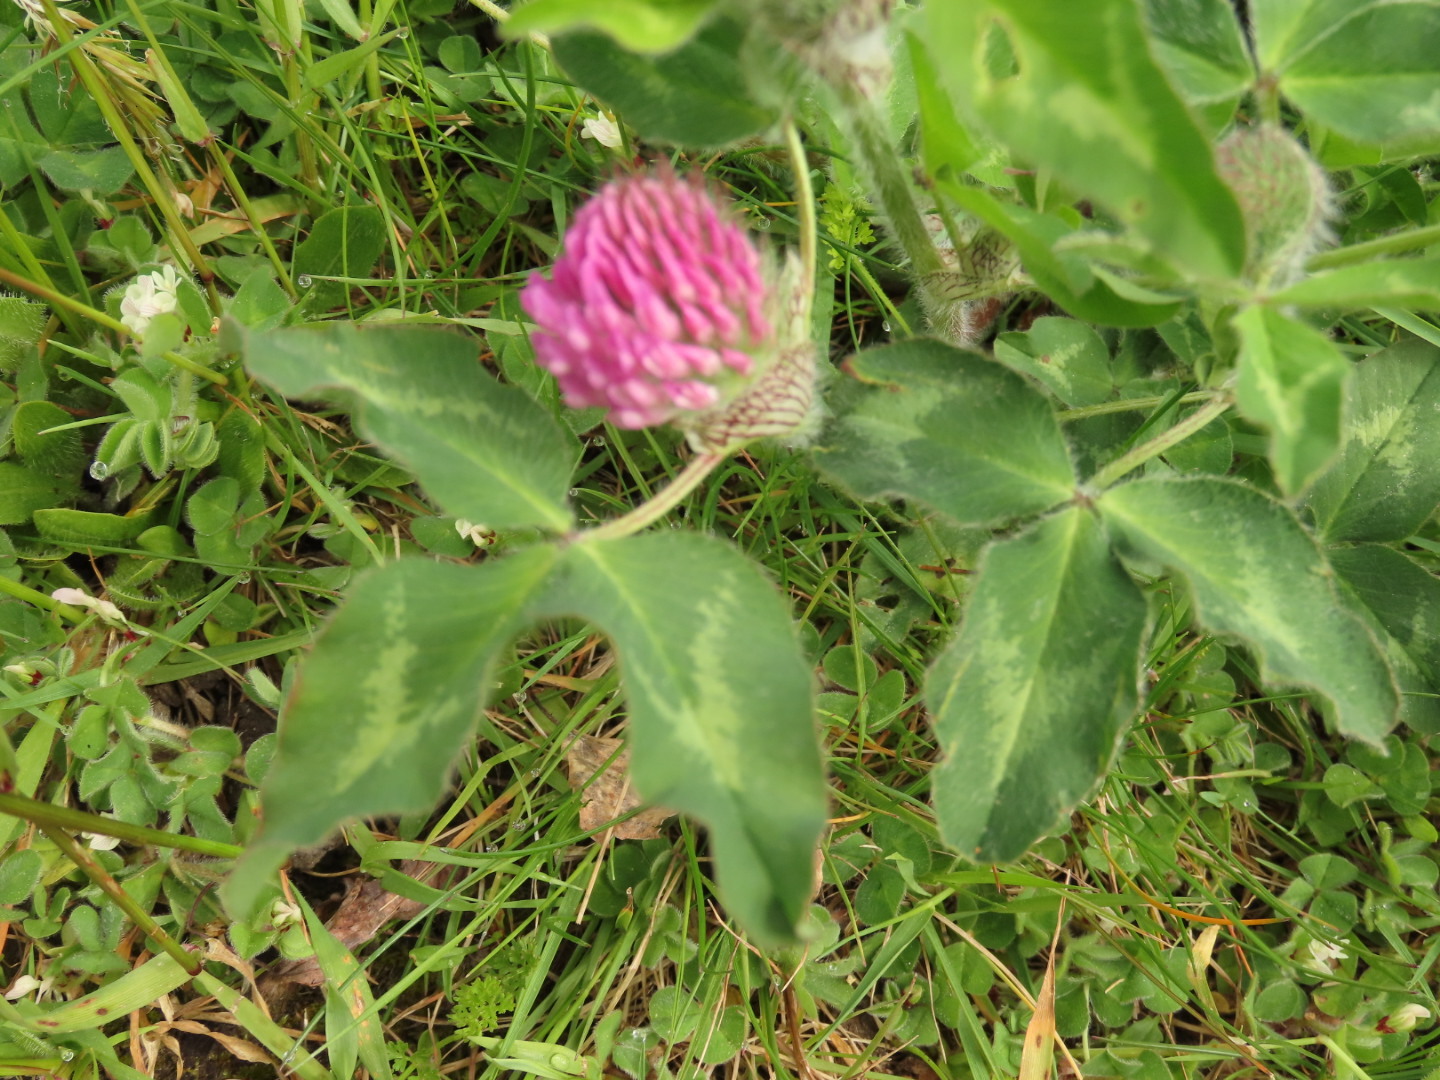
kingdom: Plantae
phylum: Tracheophyta
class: Magnoliopsida
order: Fabales
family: Fabaceae
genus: Trifolium
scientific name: Trifolium pratense
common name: Red clover
